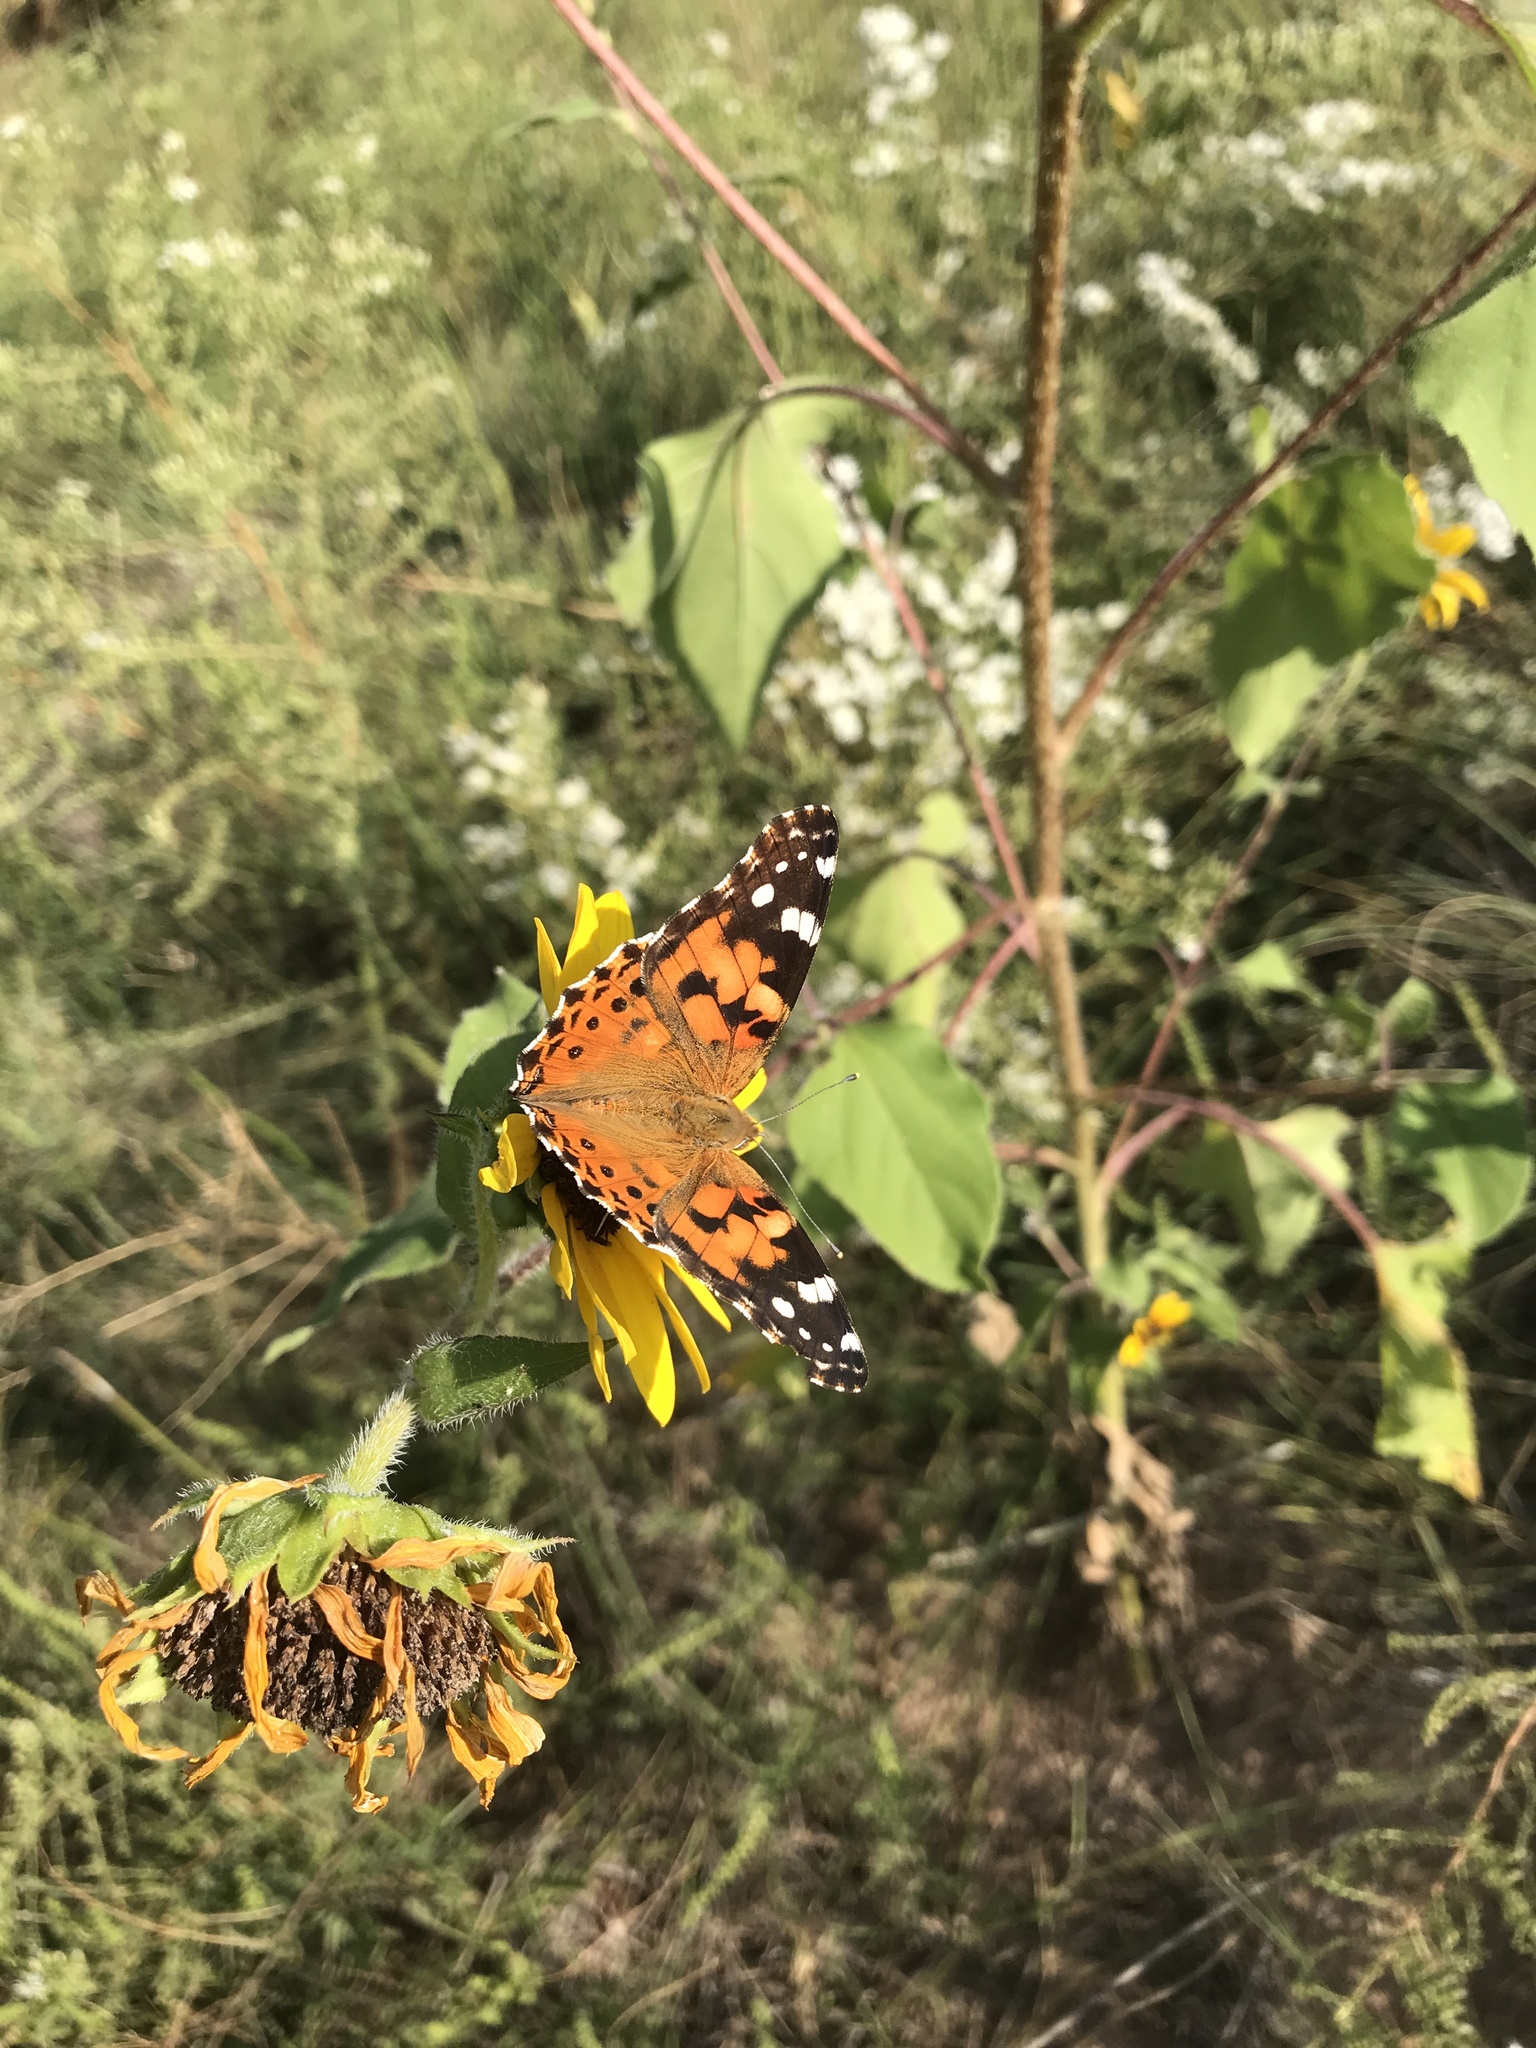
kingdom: Animalia
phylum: Arthropoda
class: Insecta
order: Lepidoptera
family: Nymphalidae
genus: Vanessa
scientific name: Vanessa cardui
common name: Painted lady
